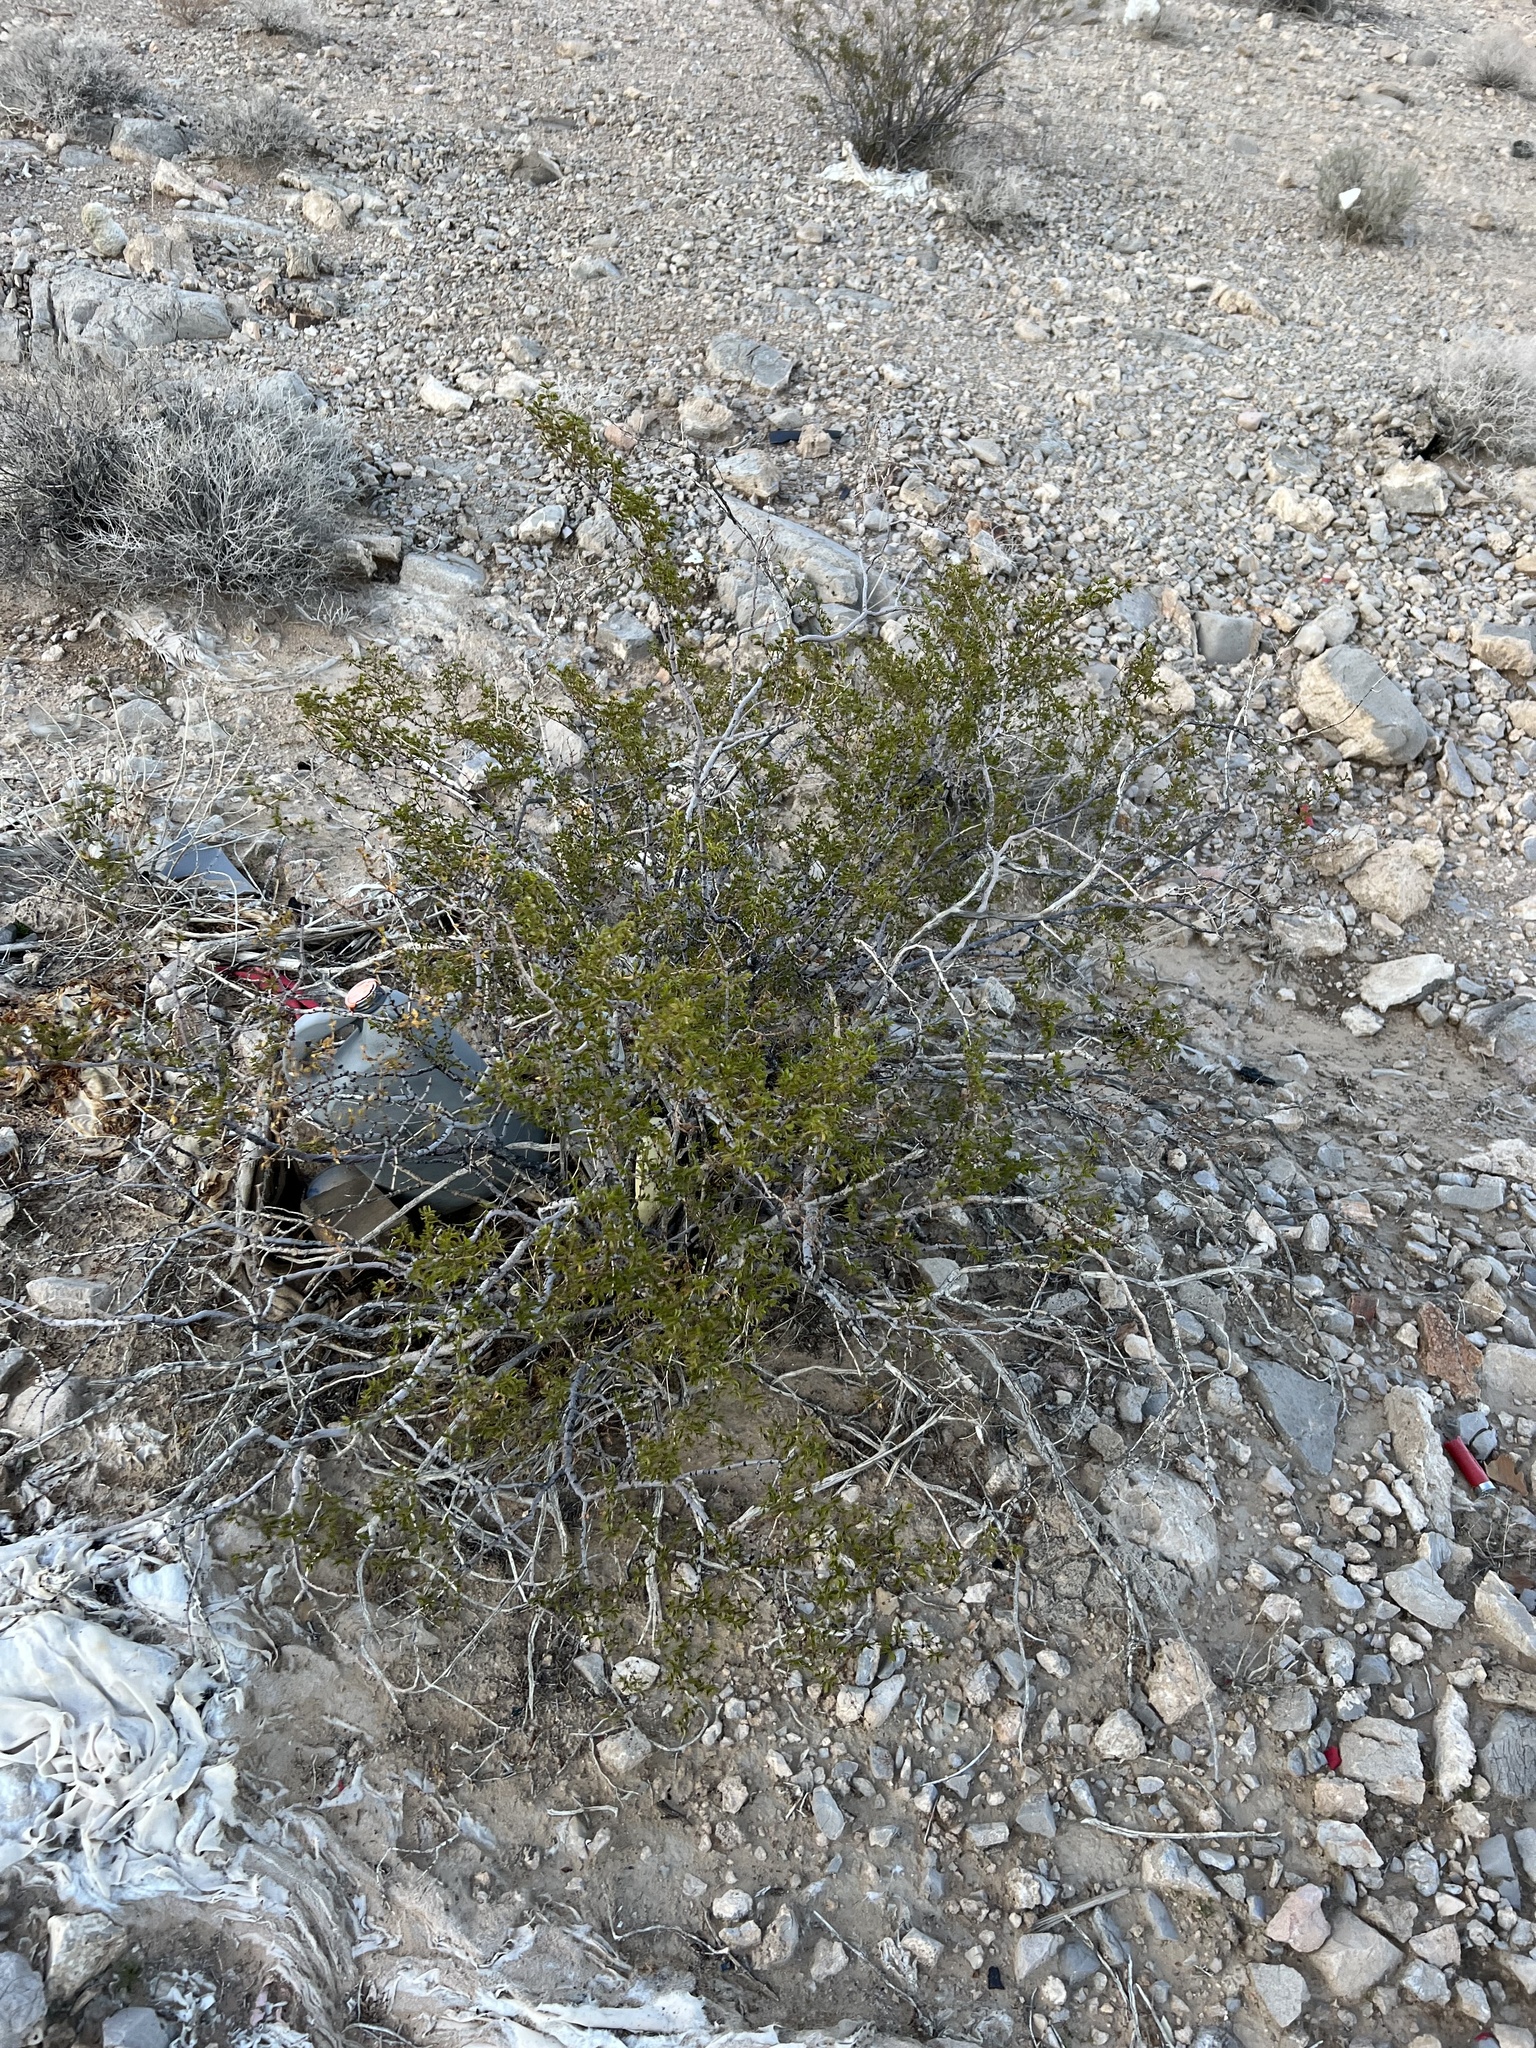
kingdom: Plantae
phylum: Tracheophyta
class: Magnoliopsida
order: Zygophyllales
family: Zygophyllaceae
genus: Larrea
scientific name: Larrea tridentata
